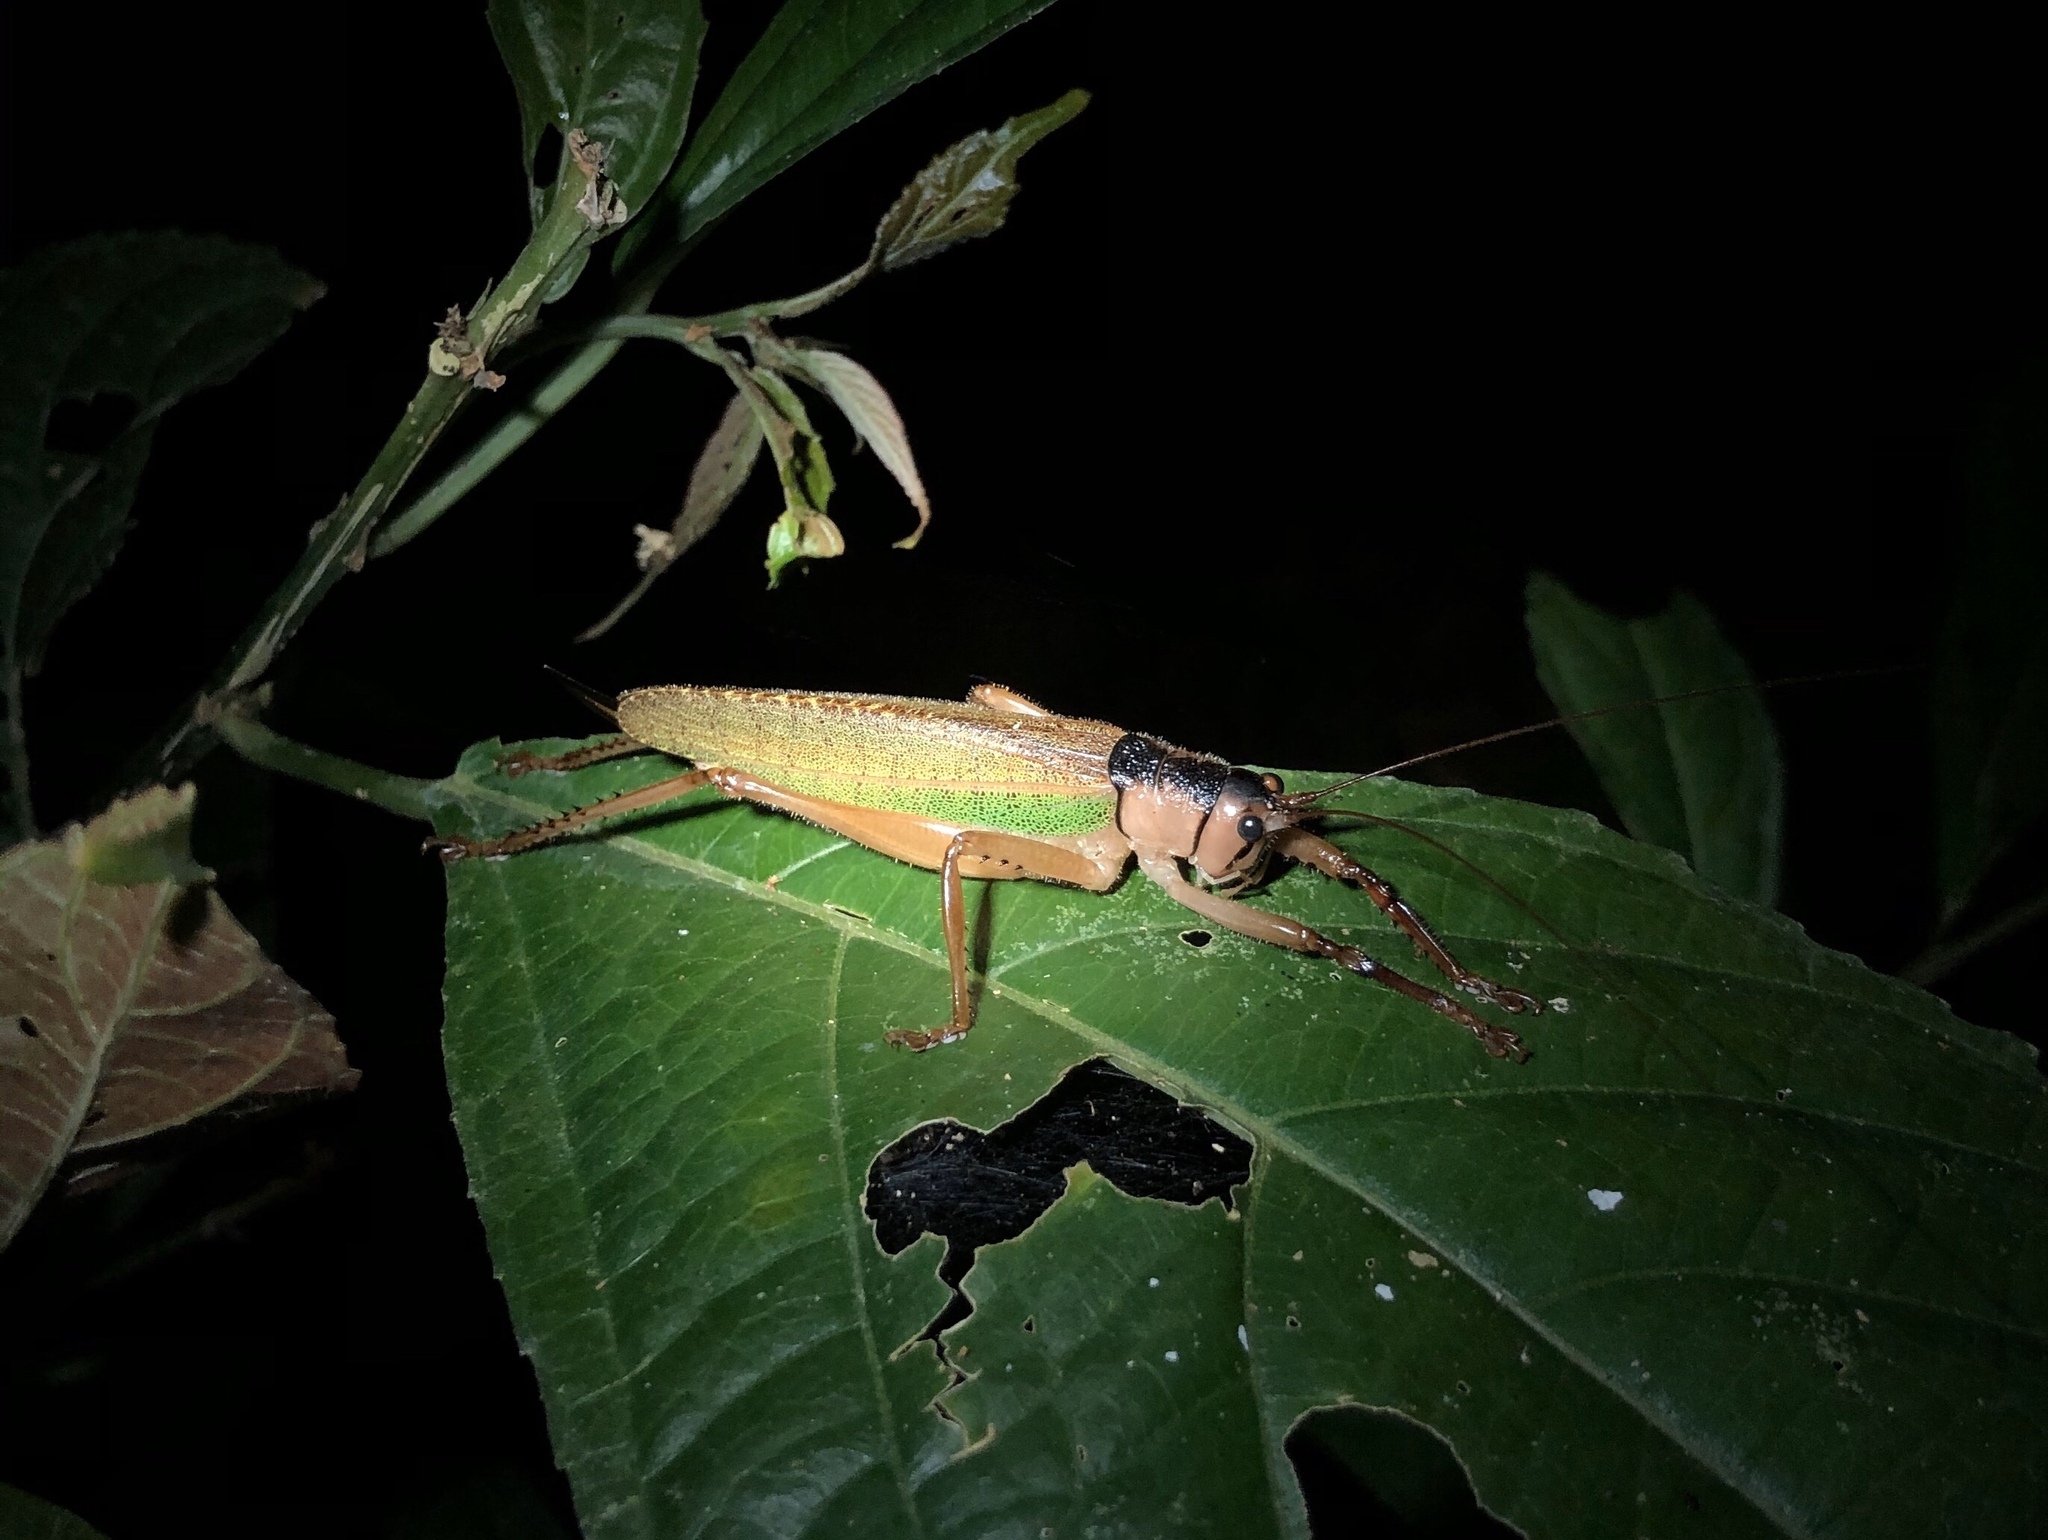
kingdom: Animalia
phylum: Arthropoda
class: Insecta
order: Orthoptera
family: Tettigoniidae
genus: Cocconotus
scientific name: Cocconotus wheeleri
